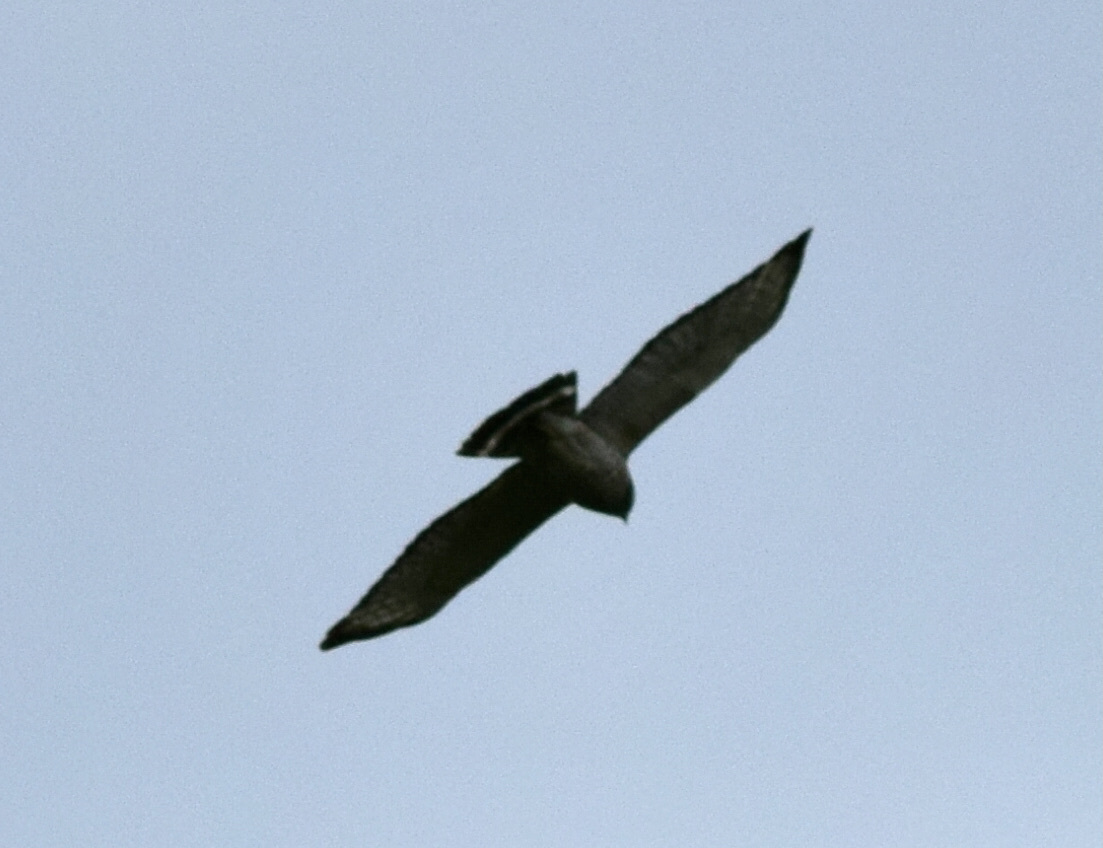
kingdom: Animalia
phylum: Chordata
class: Aves
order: Accipitriformes
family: Accipitridae
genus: Buteo
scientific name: Buteo platypterus
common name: Broad-winged hawk
